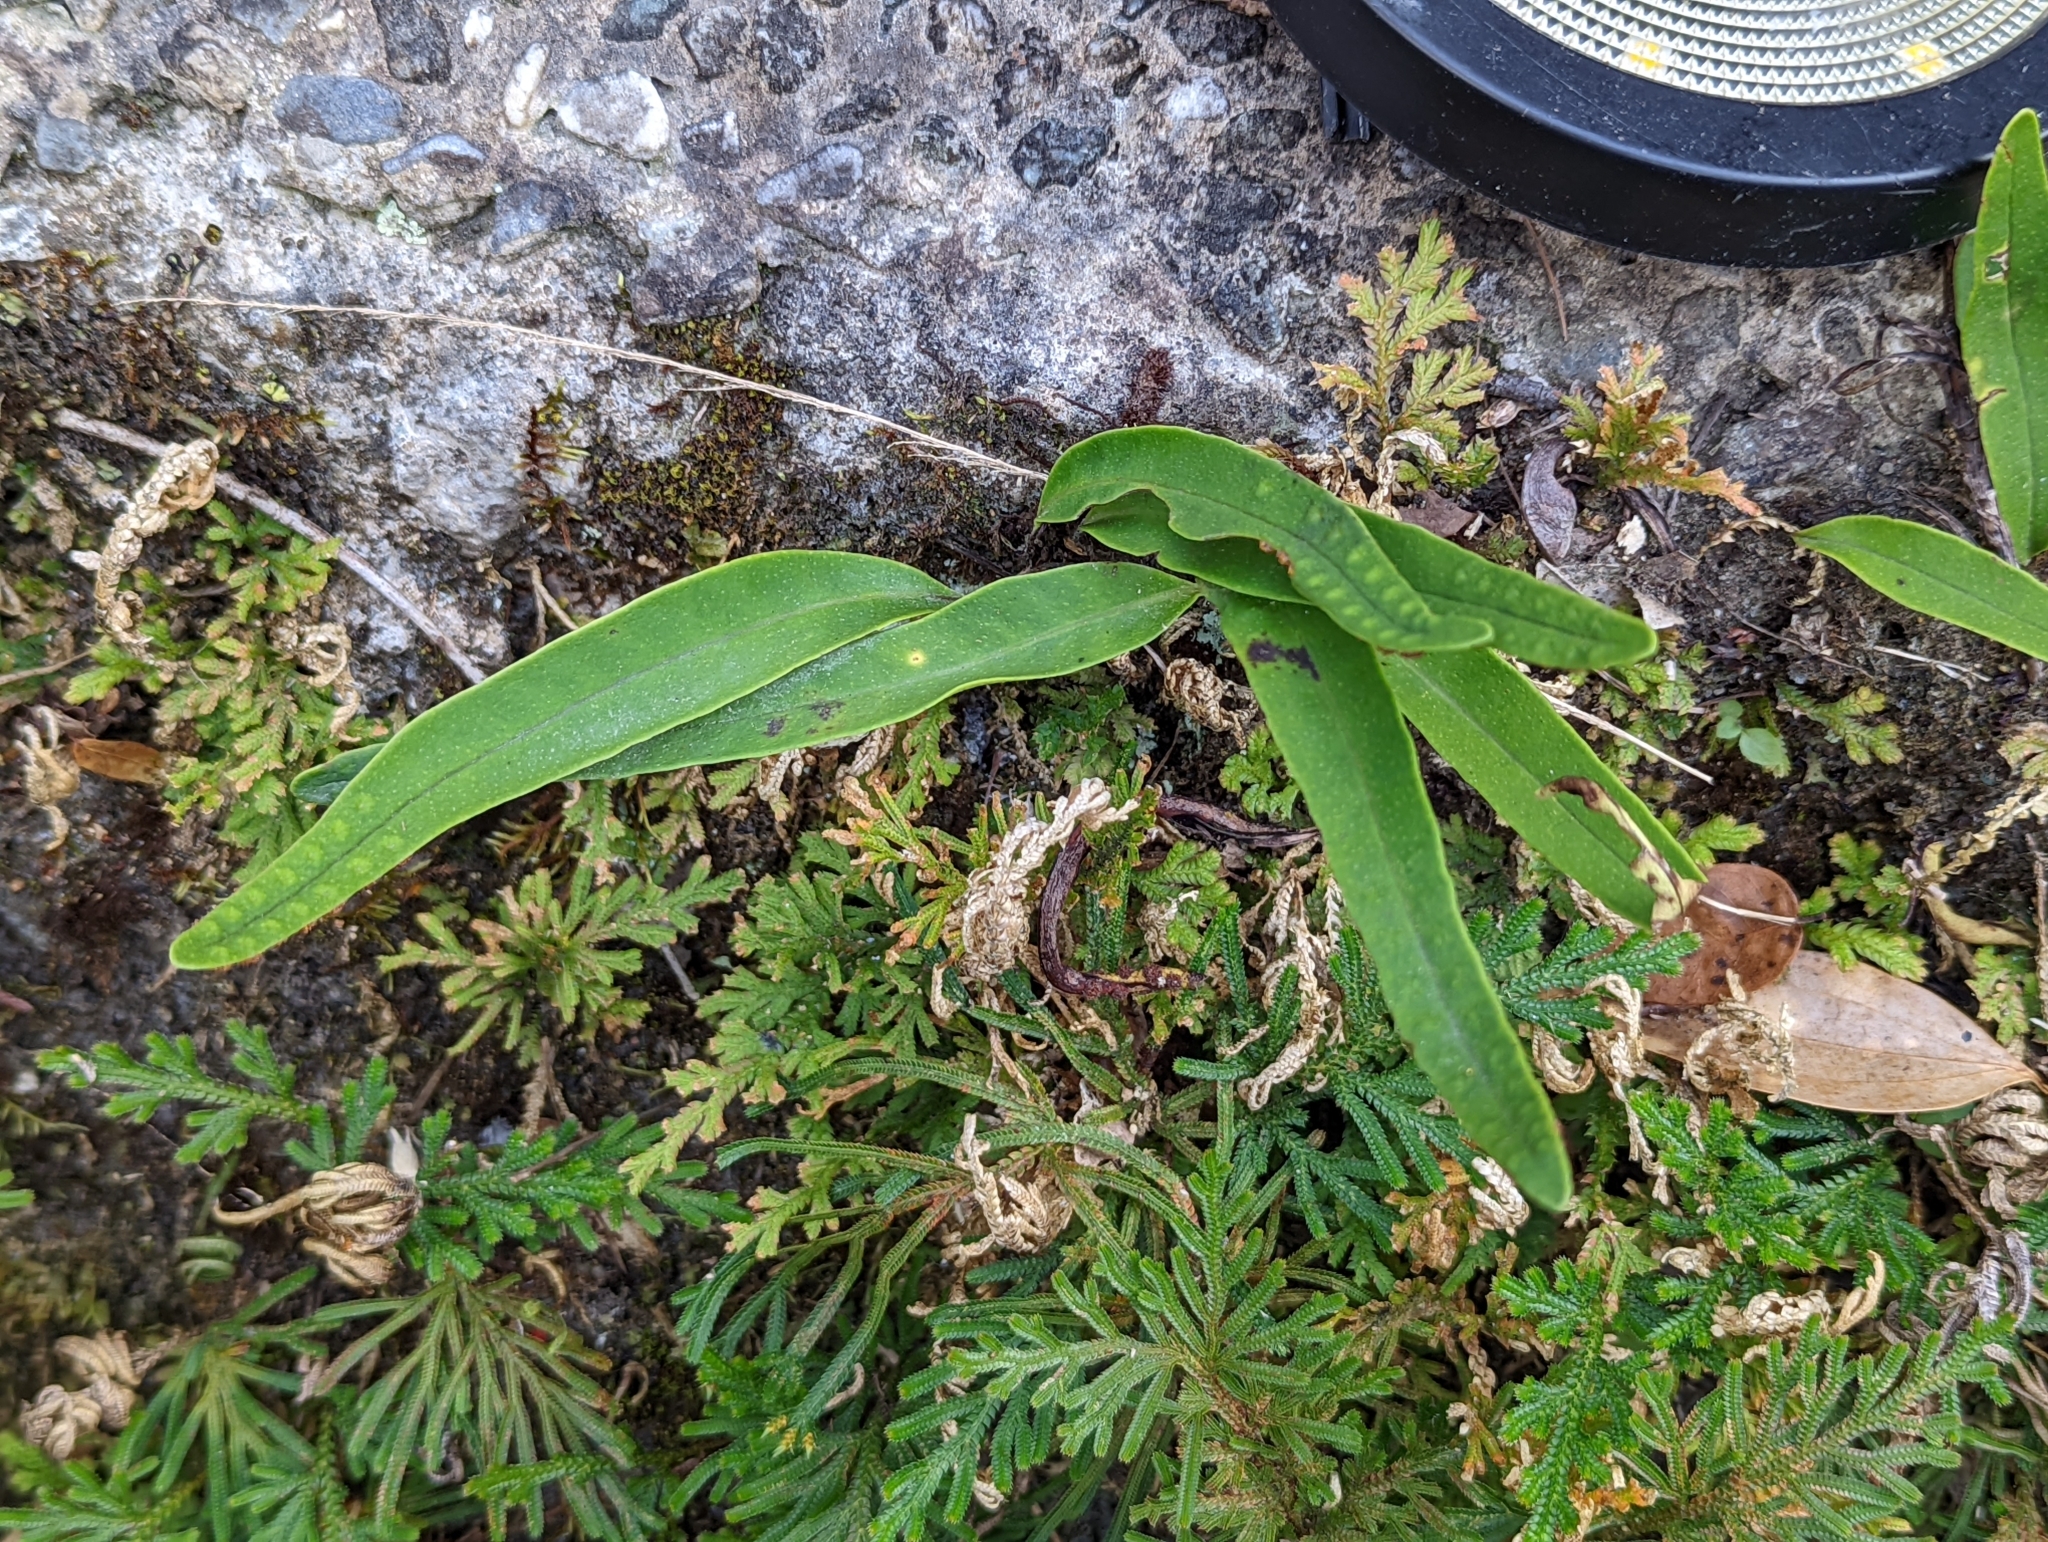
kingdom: Plantae
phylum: Tracheophyta
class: Polypodiopsida
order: Polypodiales
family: Polypodiaceae
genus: Lepisorus
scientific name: Lepisorus megasorus
